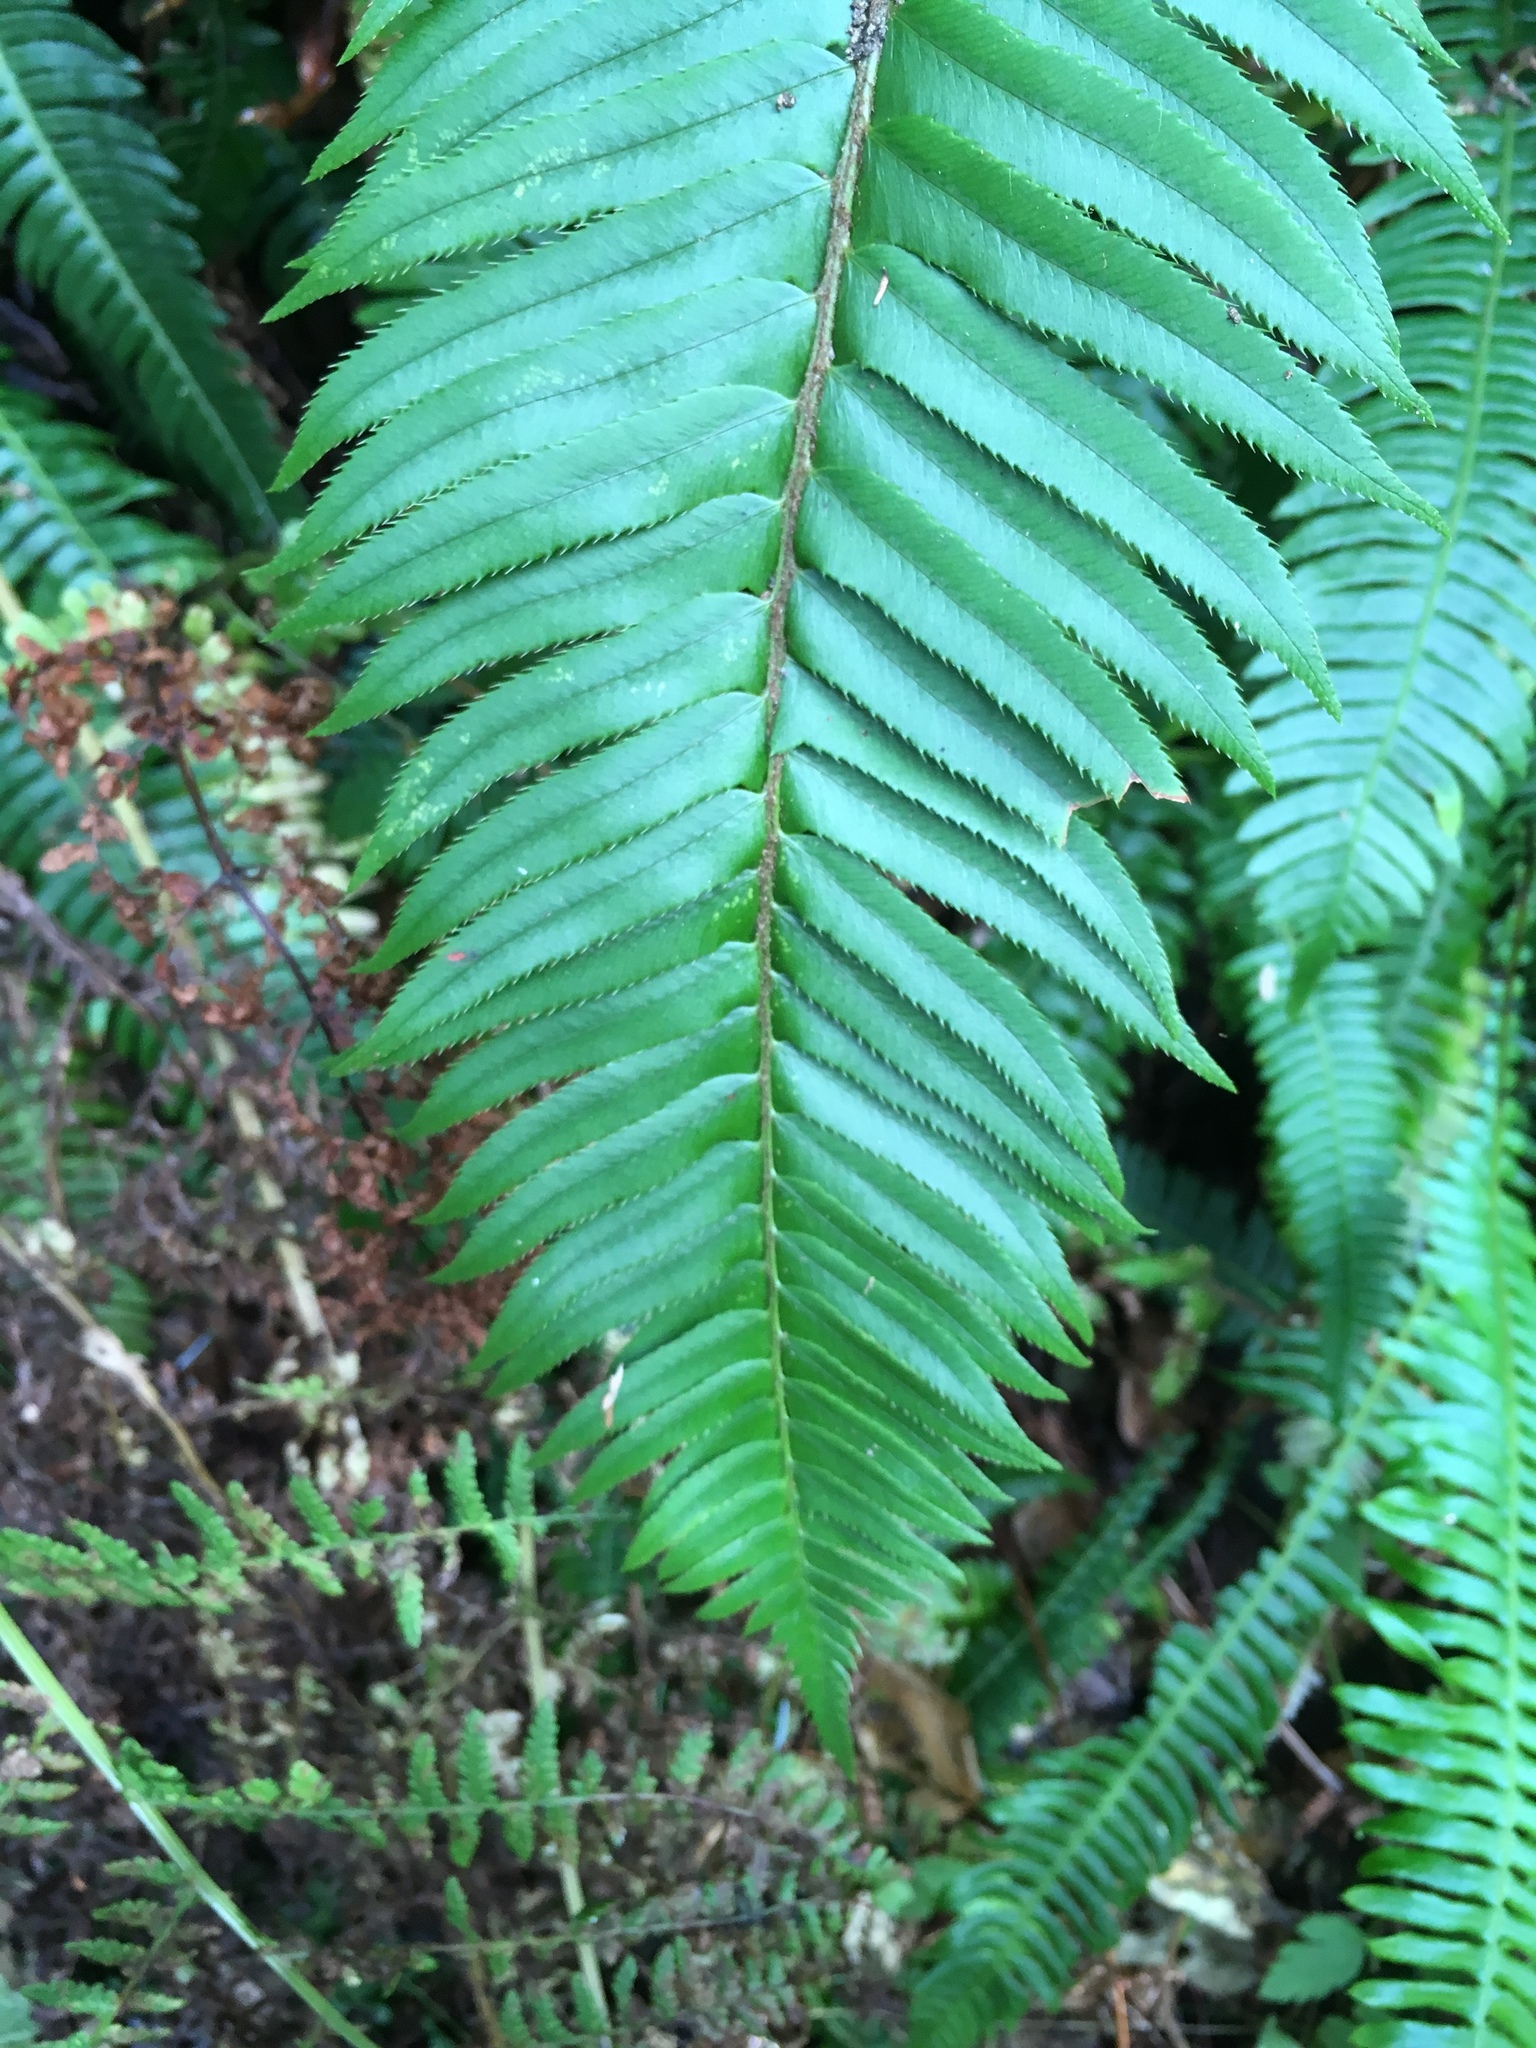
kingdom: Plantae
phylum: Tracheophyta
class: Polypodiopsida
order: Polypodiales
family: Dryopteridaceae
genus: Polystichum
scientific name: Polystichum munitum
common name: Western sword-fern
